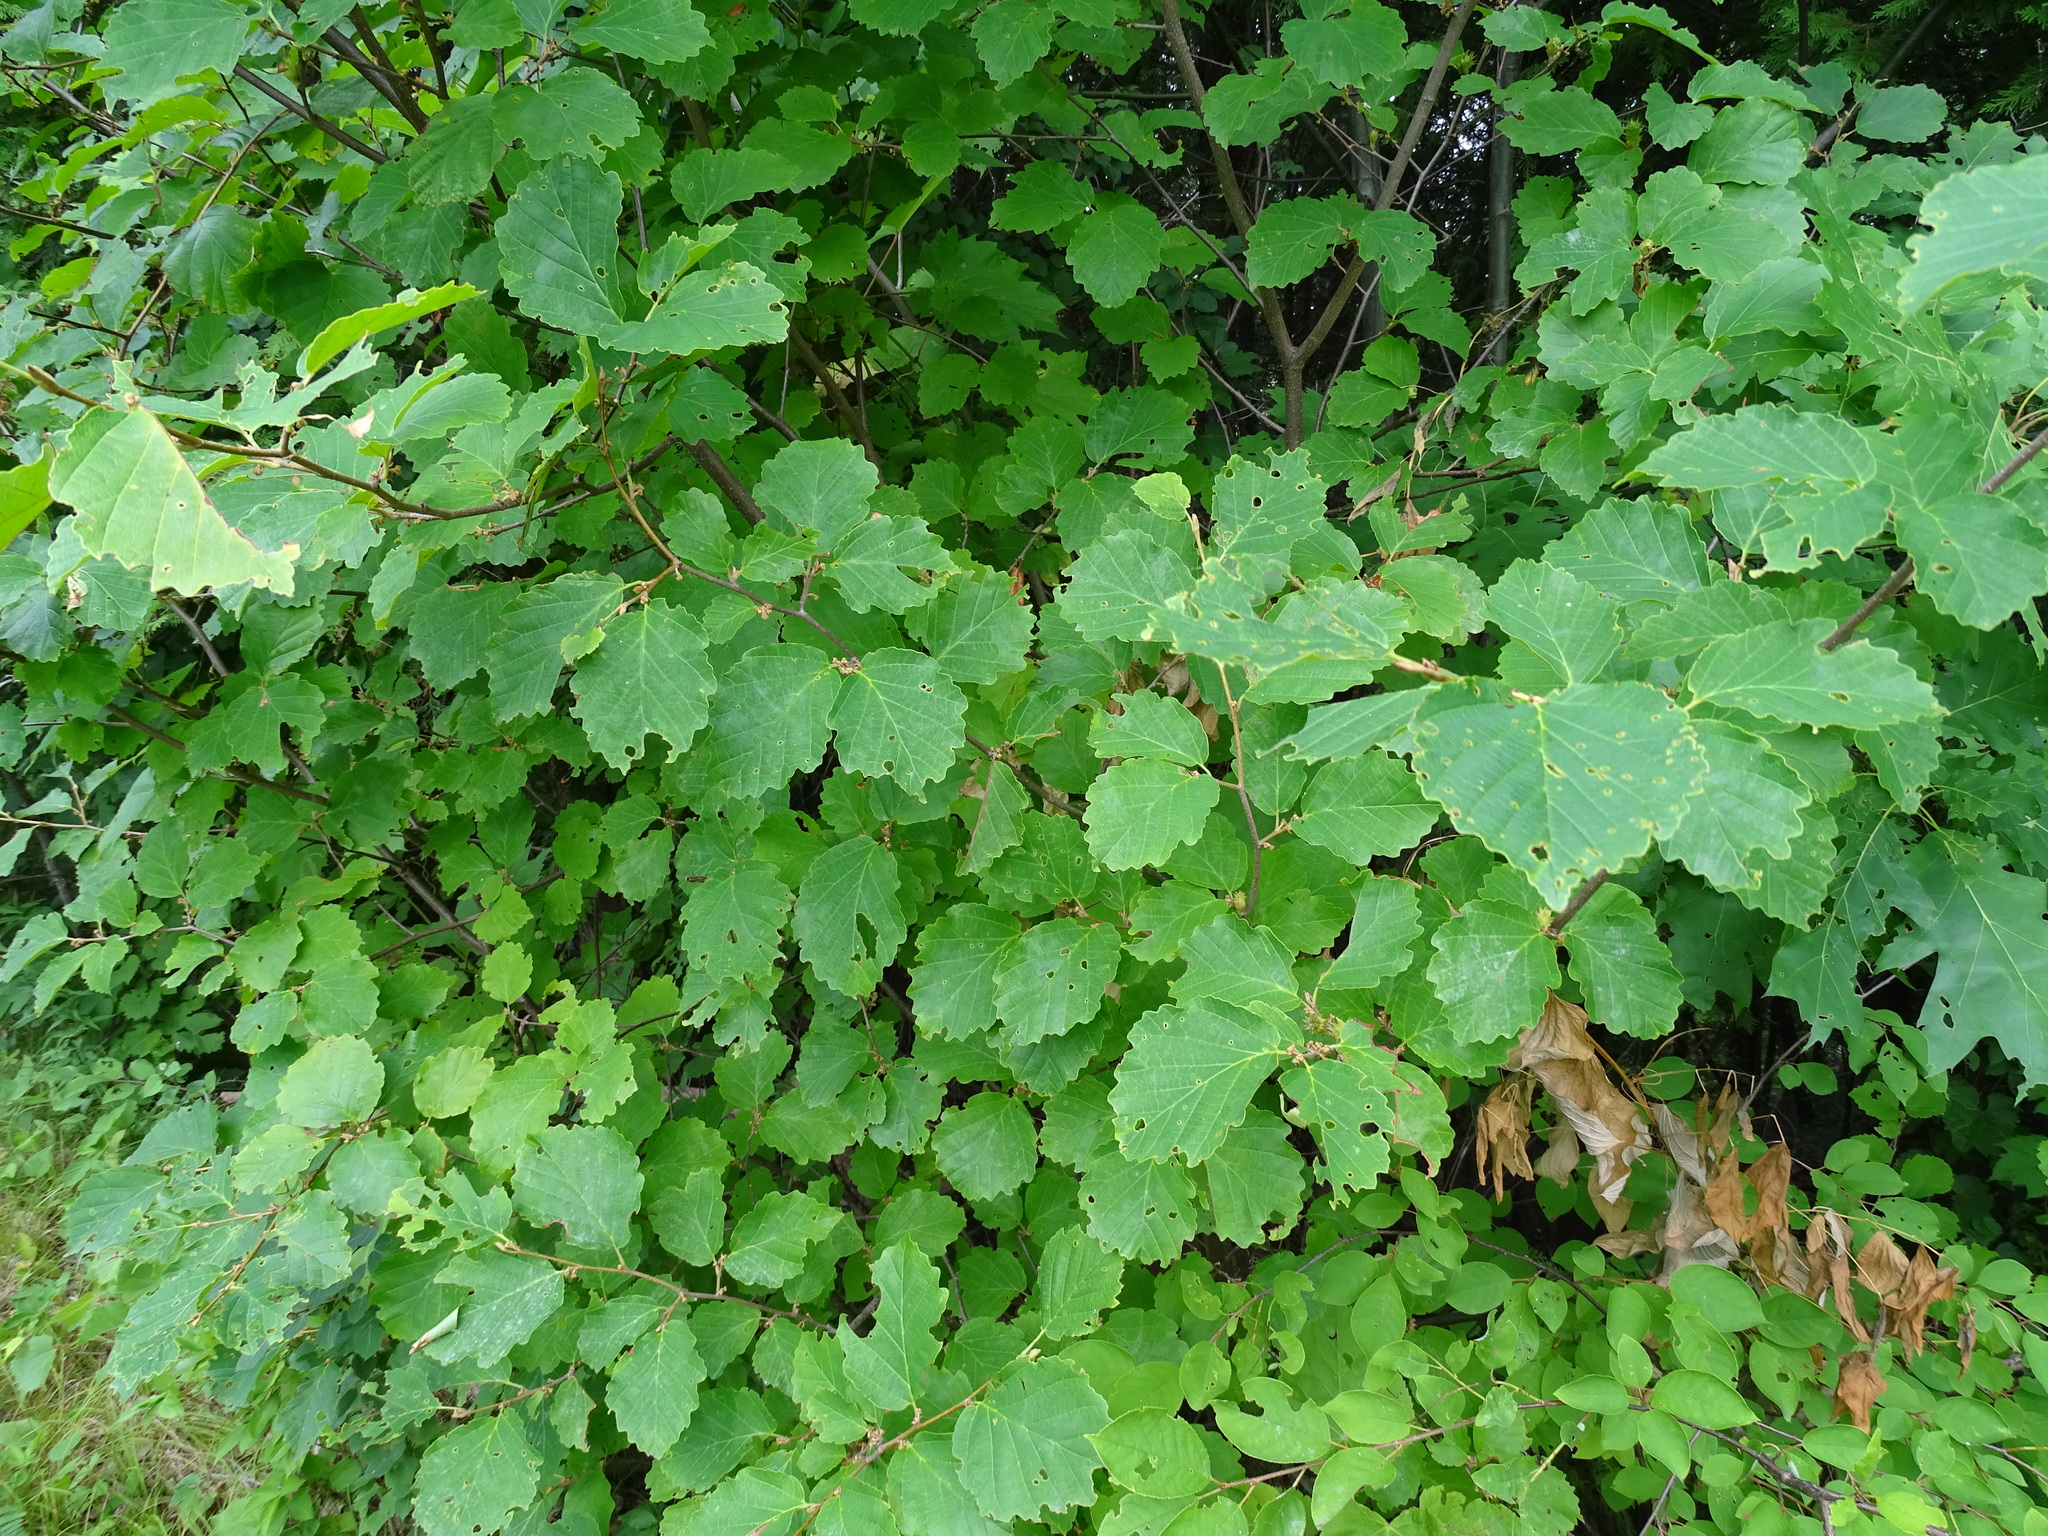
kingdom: Plantae
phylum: Tracheophyta
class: Magnoliopsida
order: Saxifragales
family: Hamamelidaceae
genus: Hamamelis
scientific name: Hamamelis virginiana
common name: Witch-hazel
